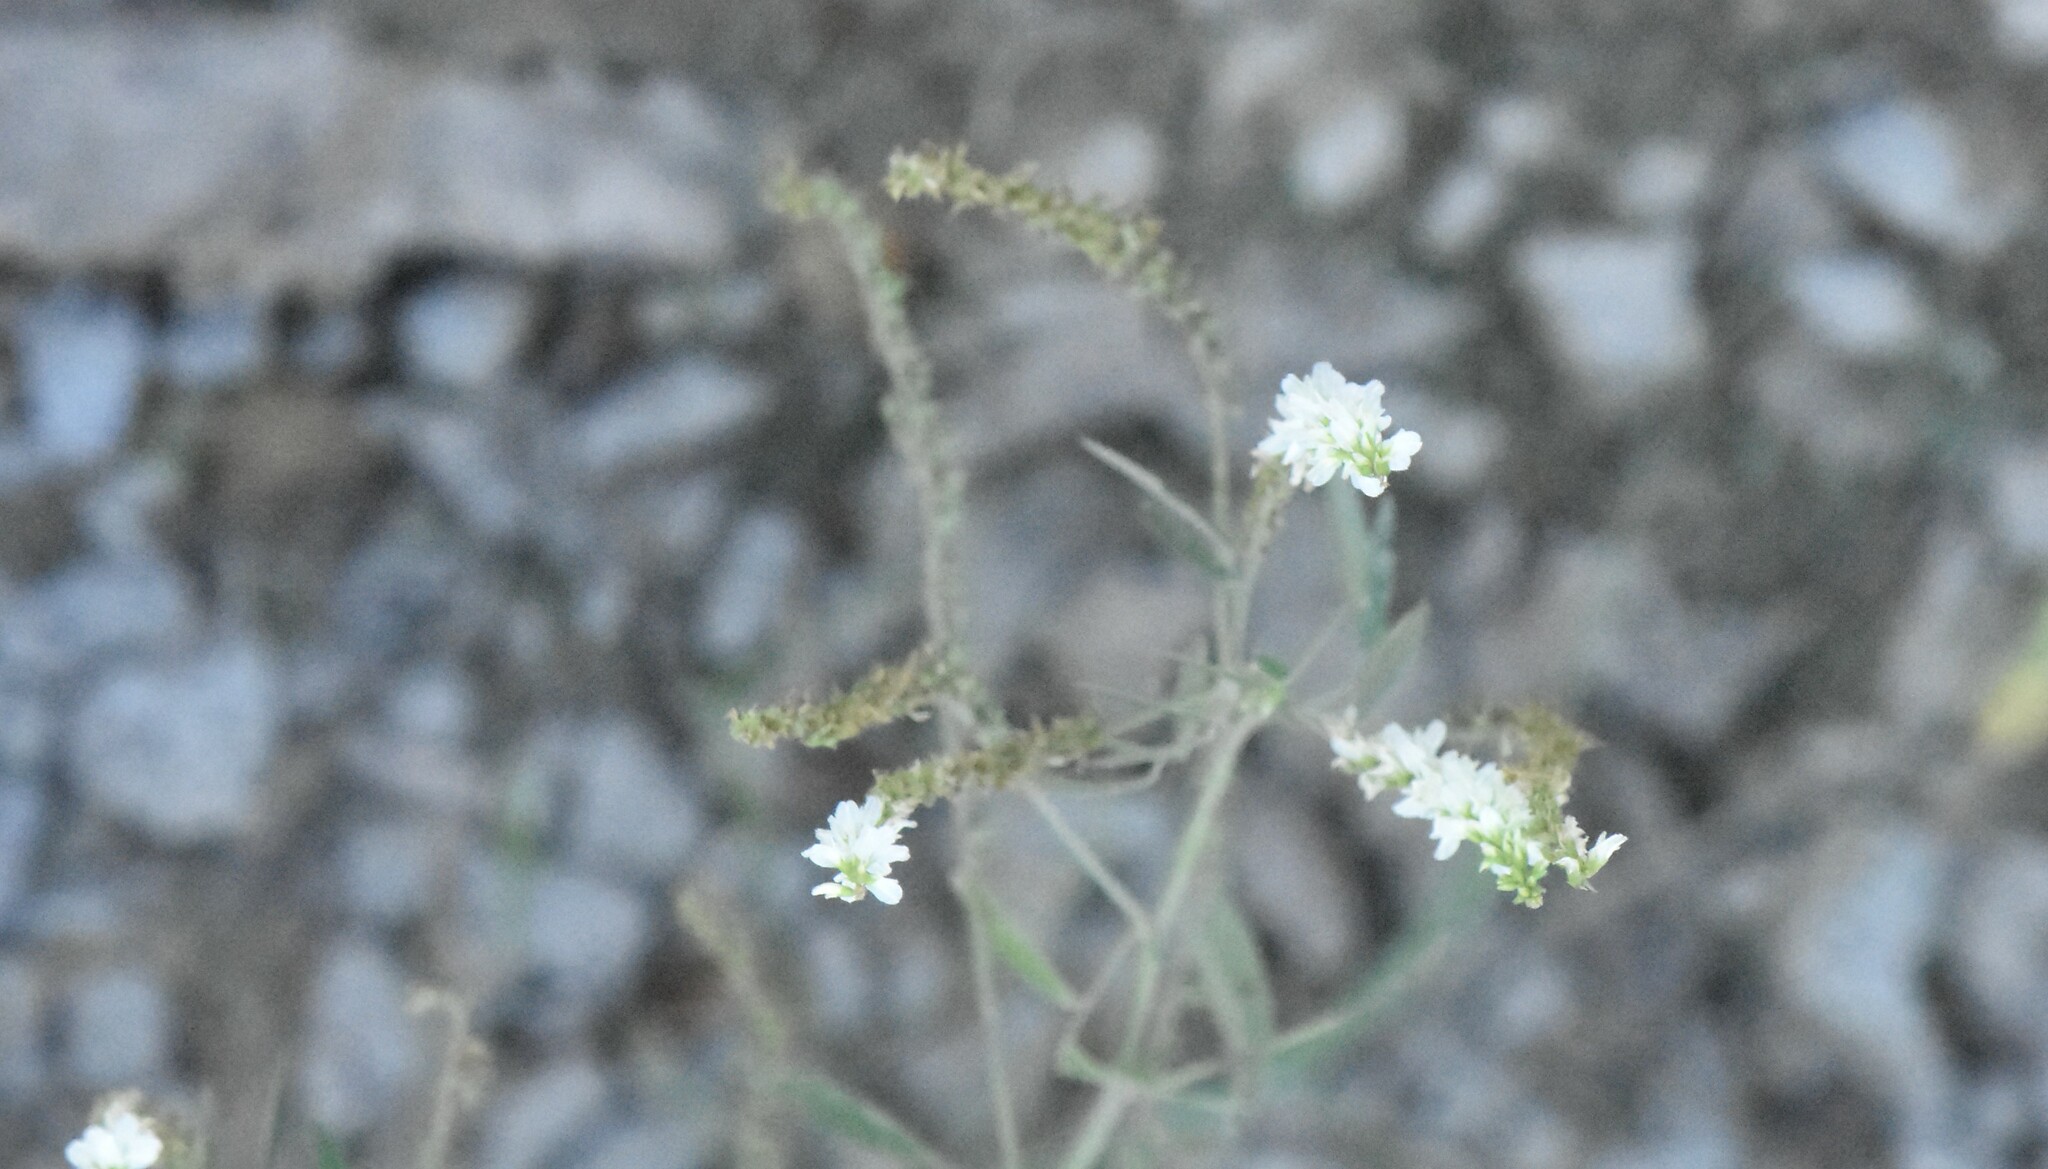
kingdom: Plantae
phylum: Tracheophyta
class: Magnoliopsida
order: Fabales
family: Fabaceae
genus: Melilotus
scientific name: Melilotus albus
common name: White melilot
